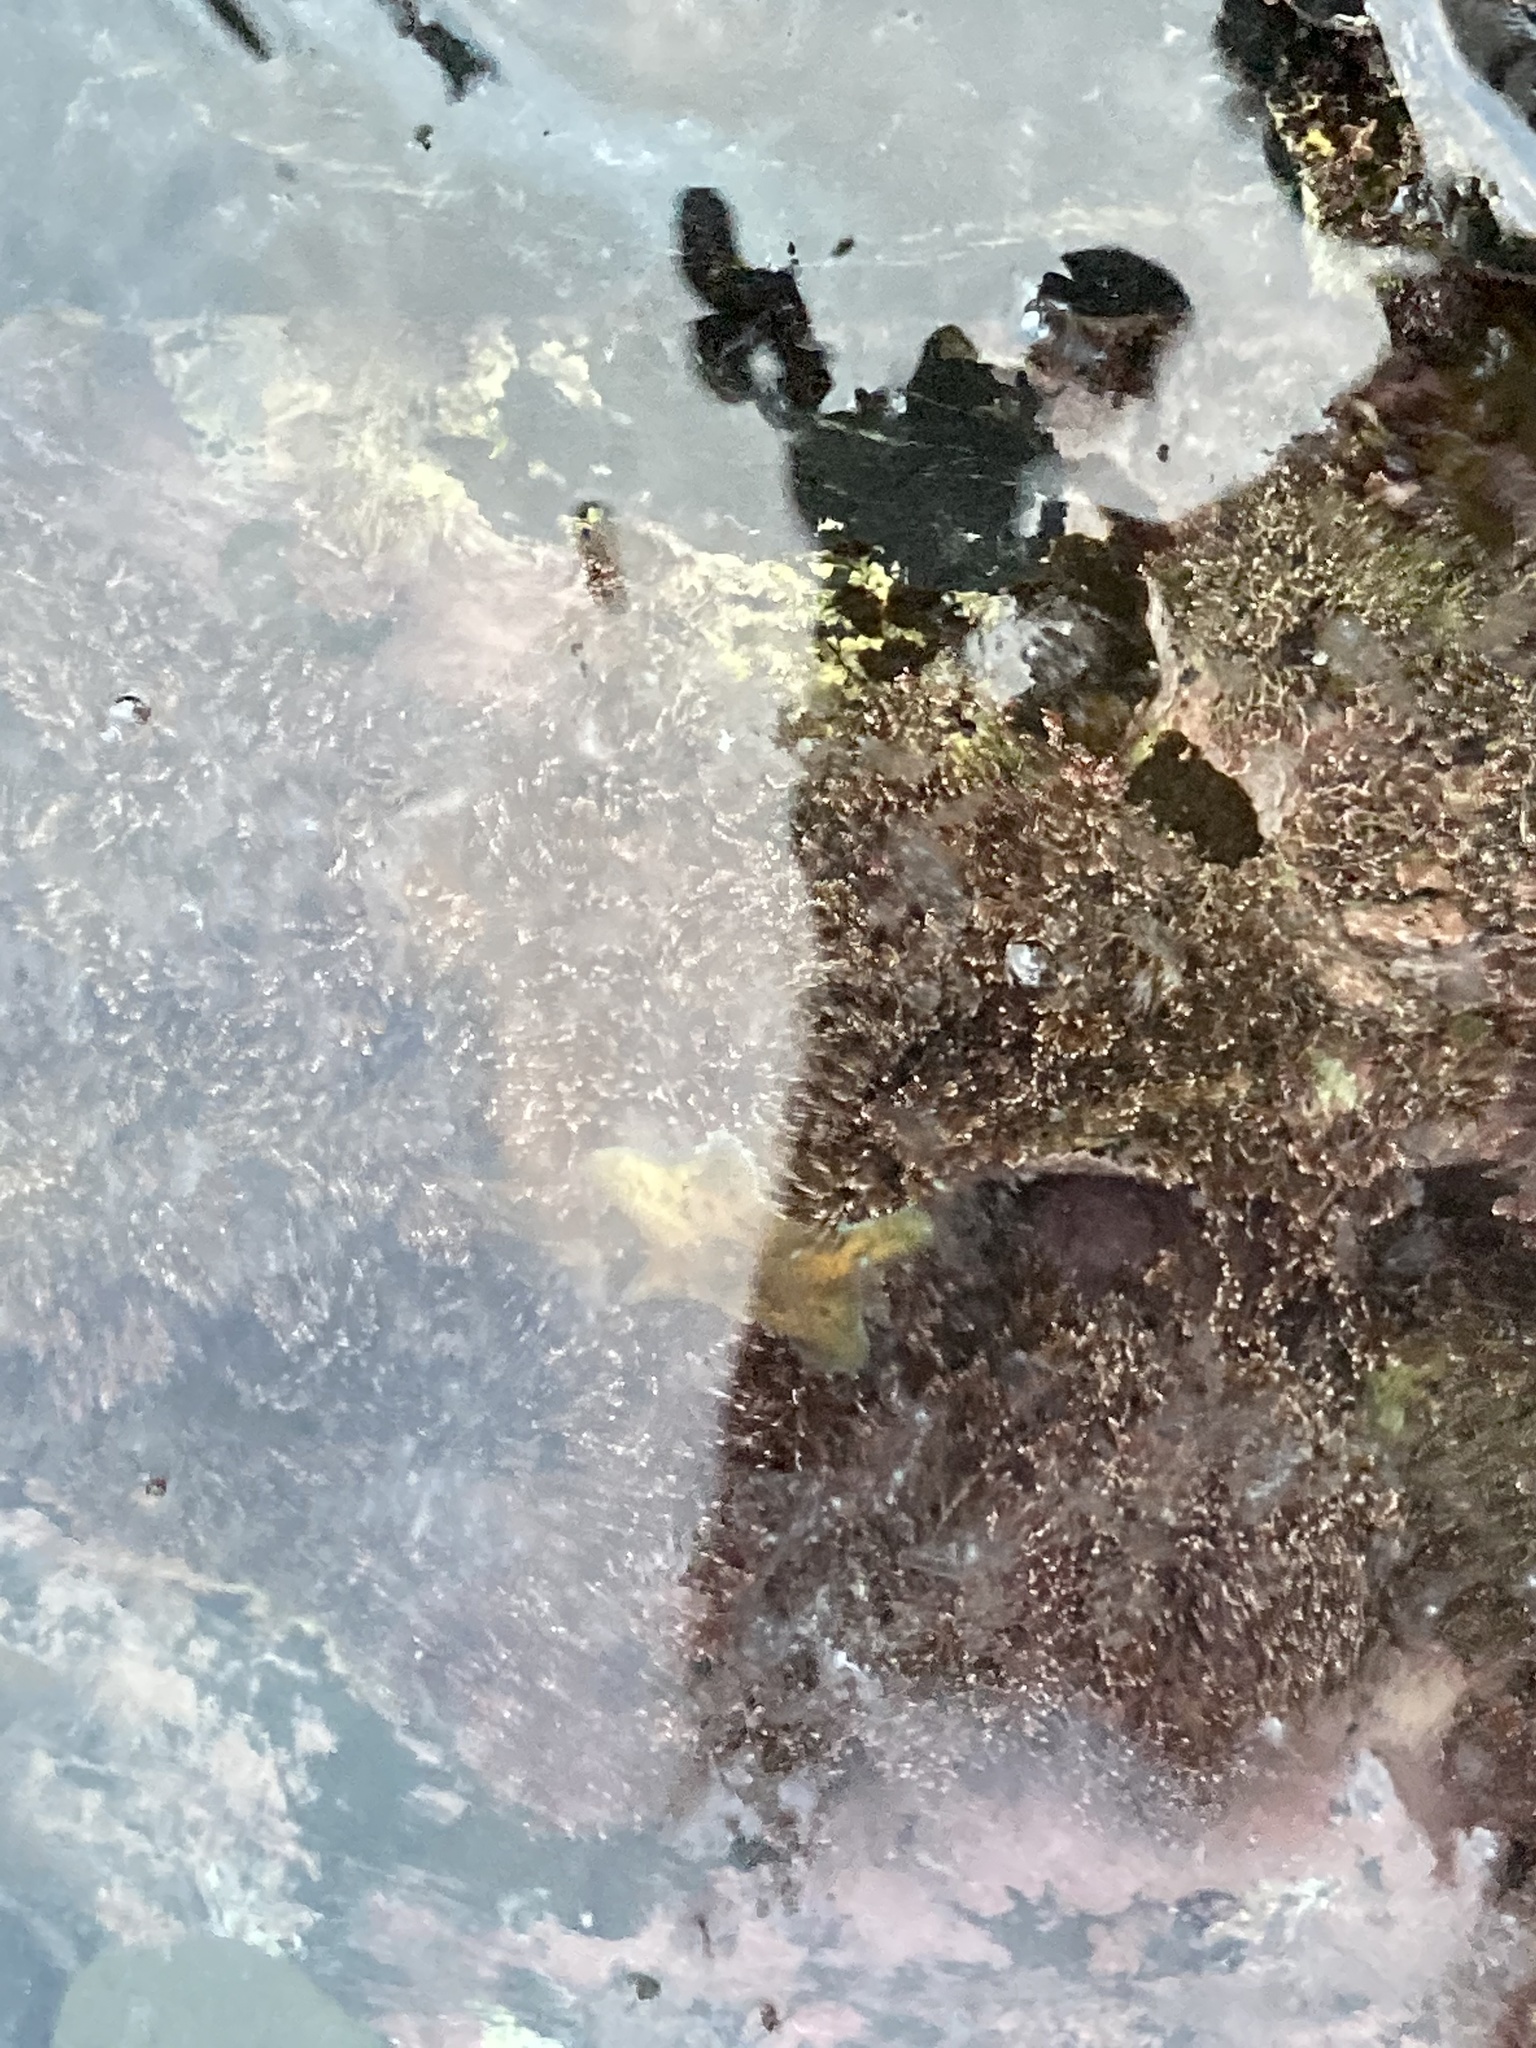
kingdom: Animalia
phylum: Echinodermata
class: Asteroidea
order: Valvatida
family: Asterinidae
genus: Patiriella
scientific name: Patiriella regularis
